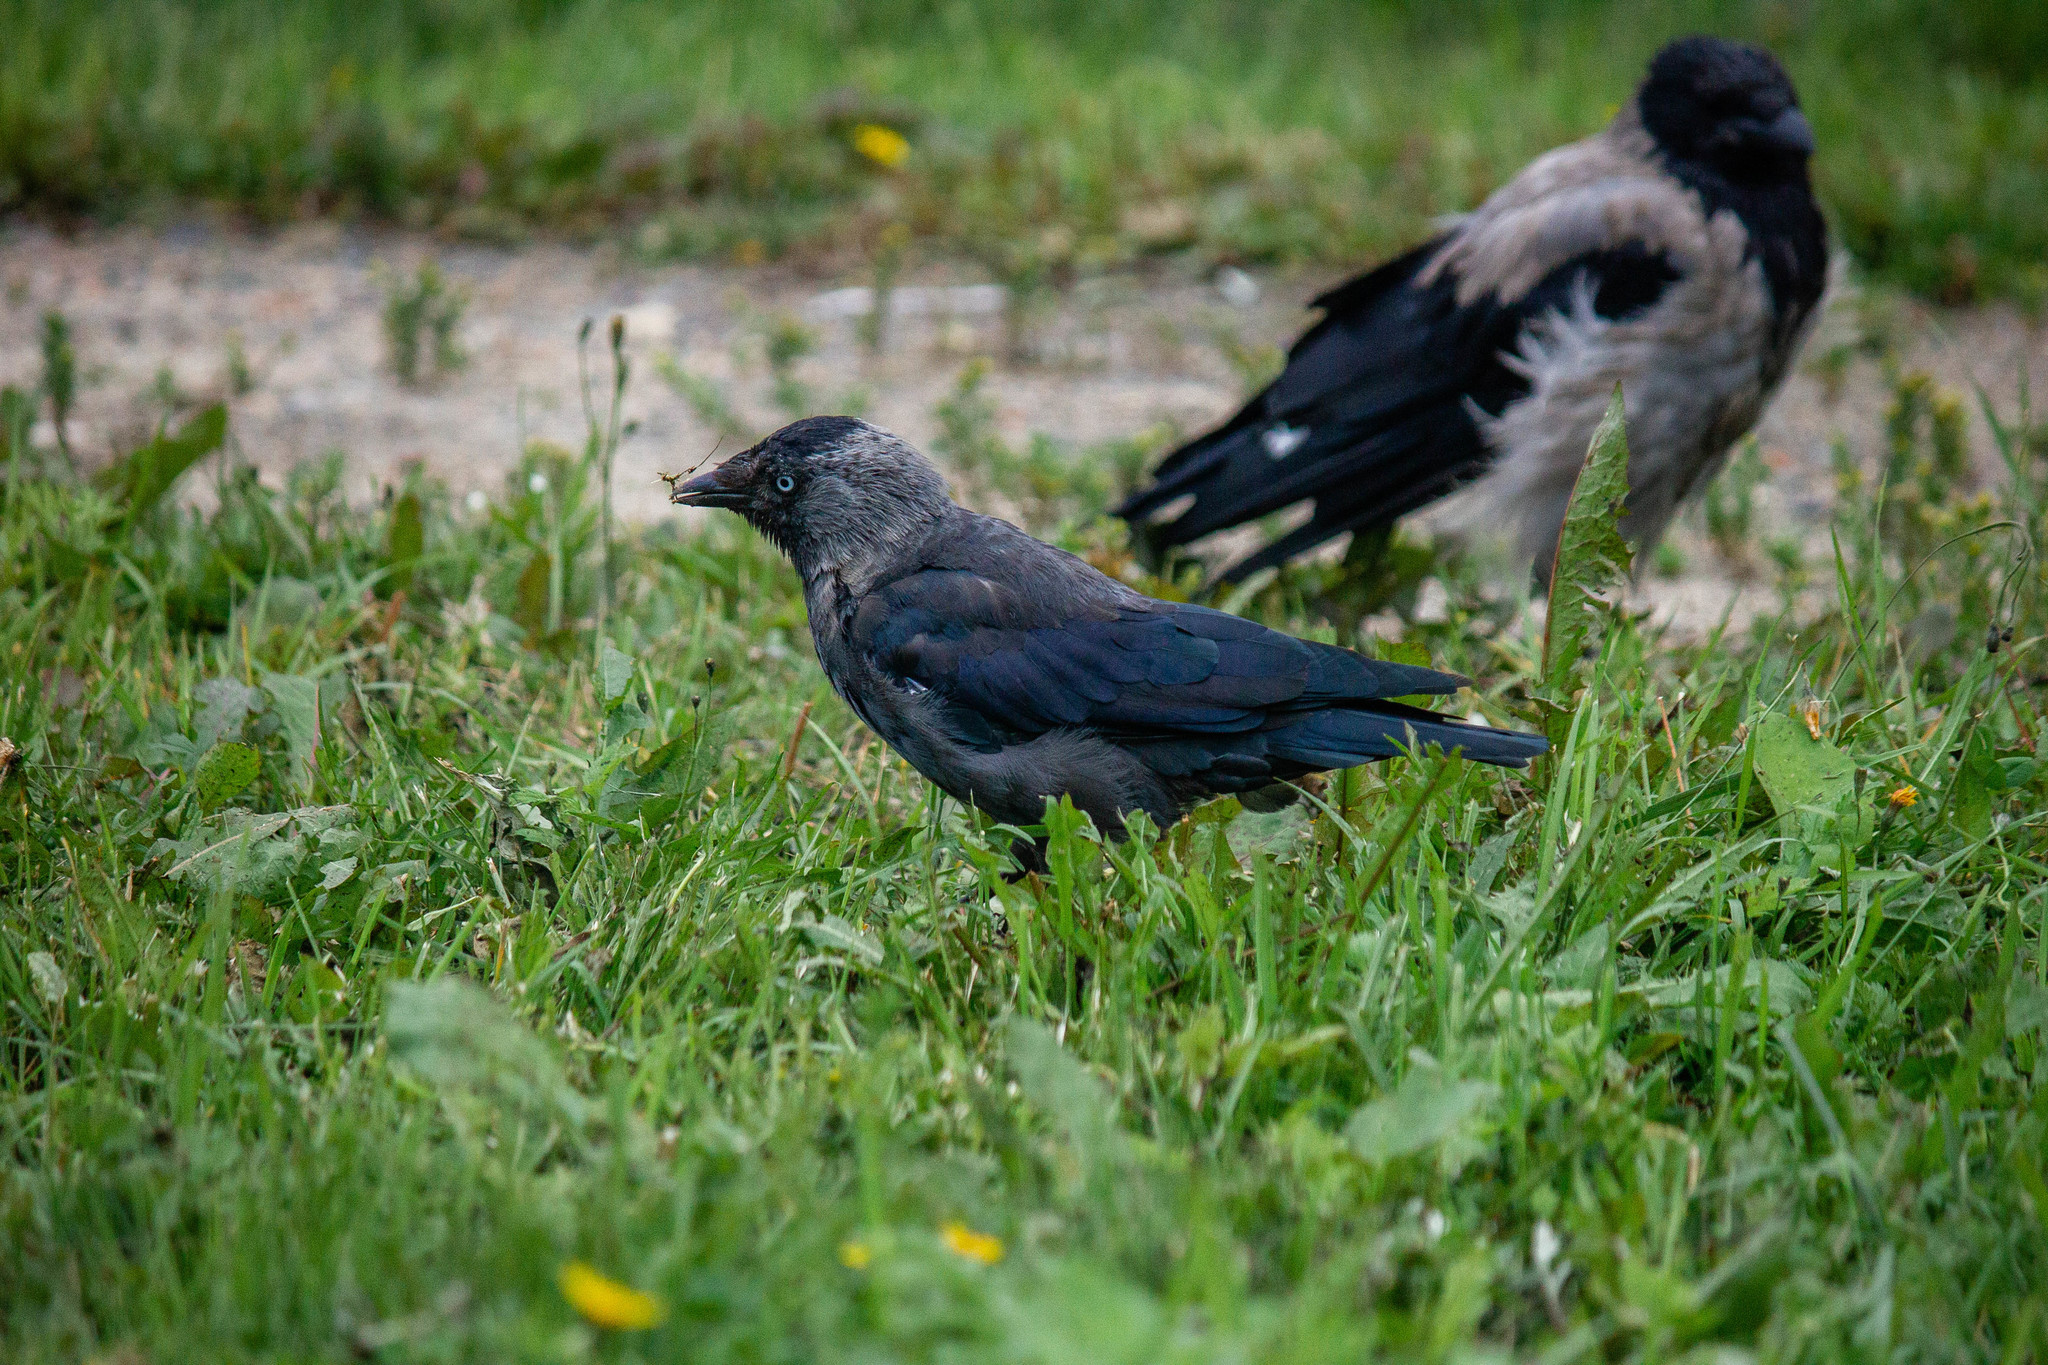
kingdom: Animalia
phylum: Chordata
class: Aves
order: Passeriformes
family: Corvidae
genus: Coloeus
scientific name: Coloeus monedula
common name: Western jackdaw
